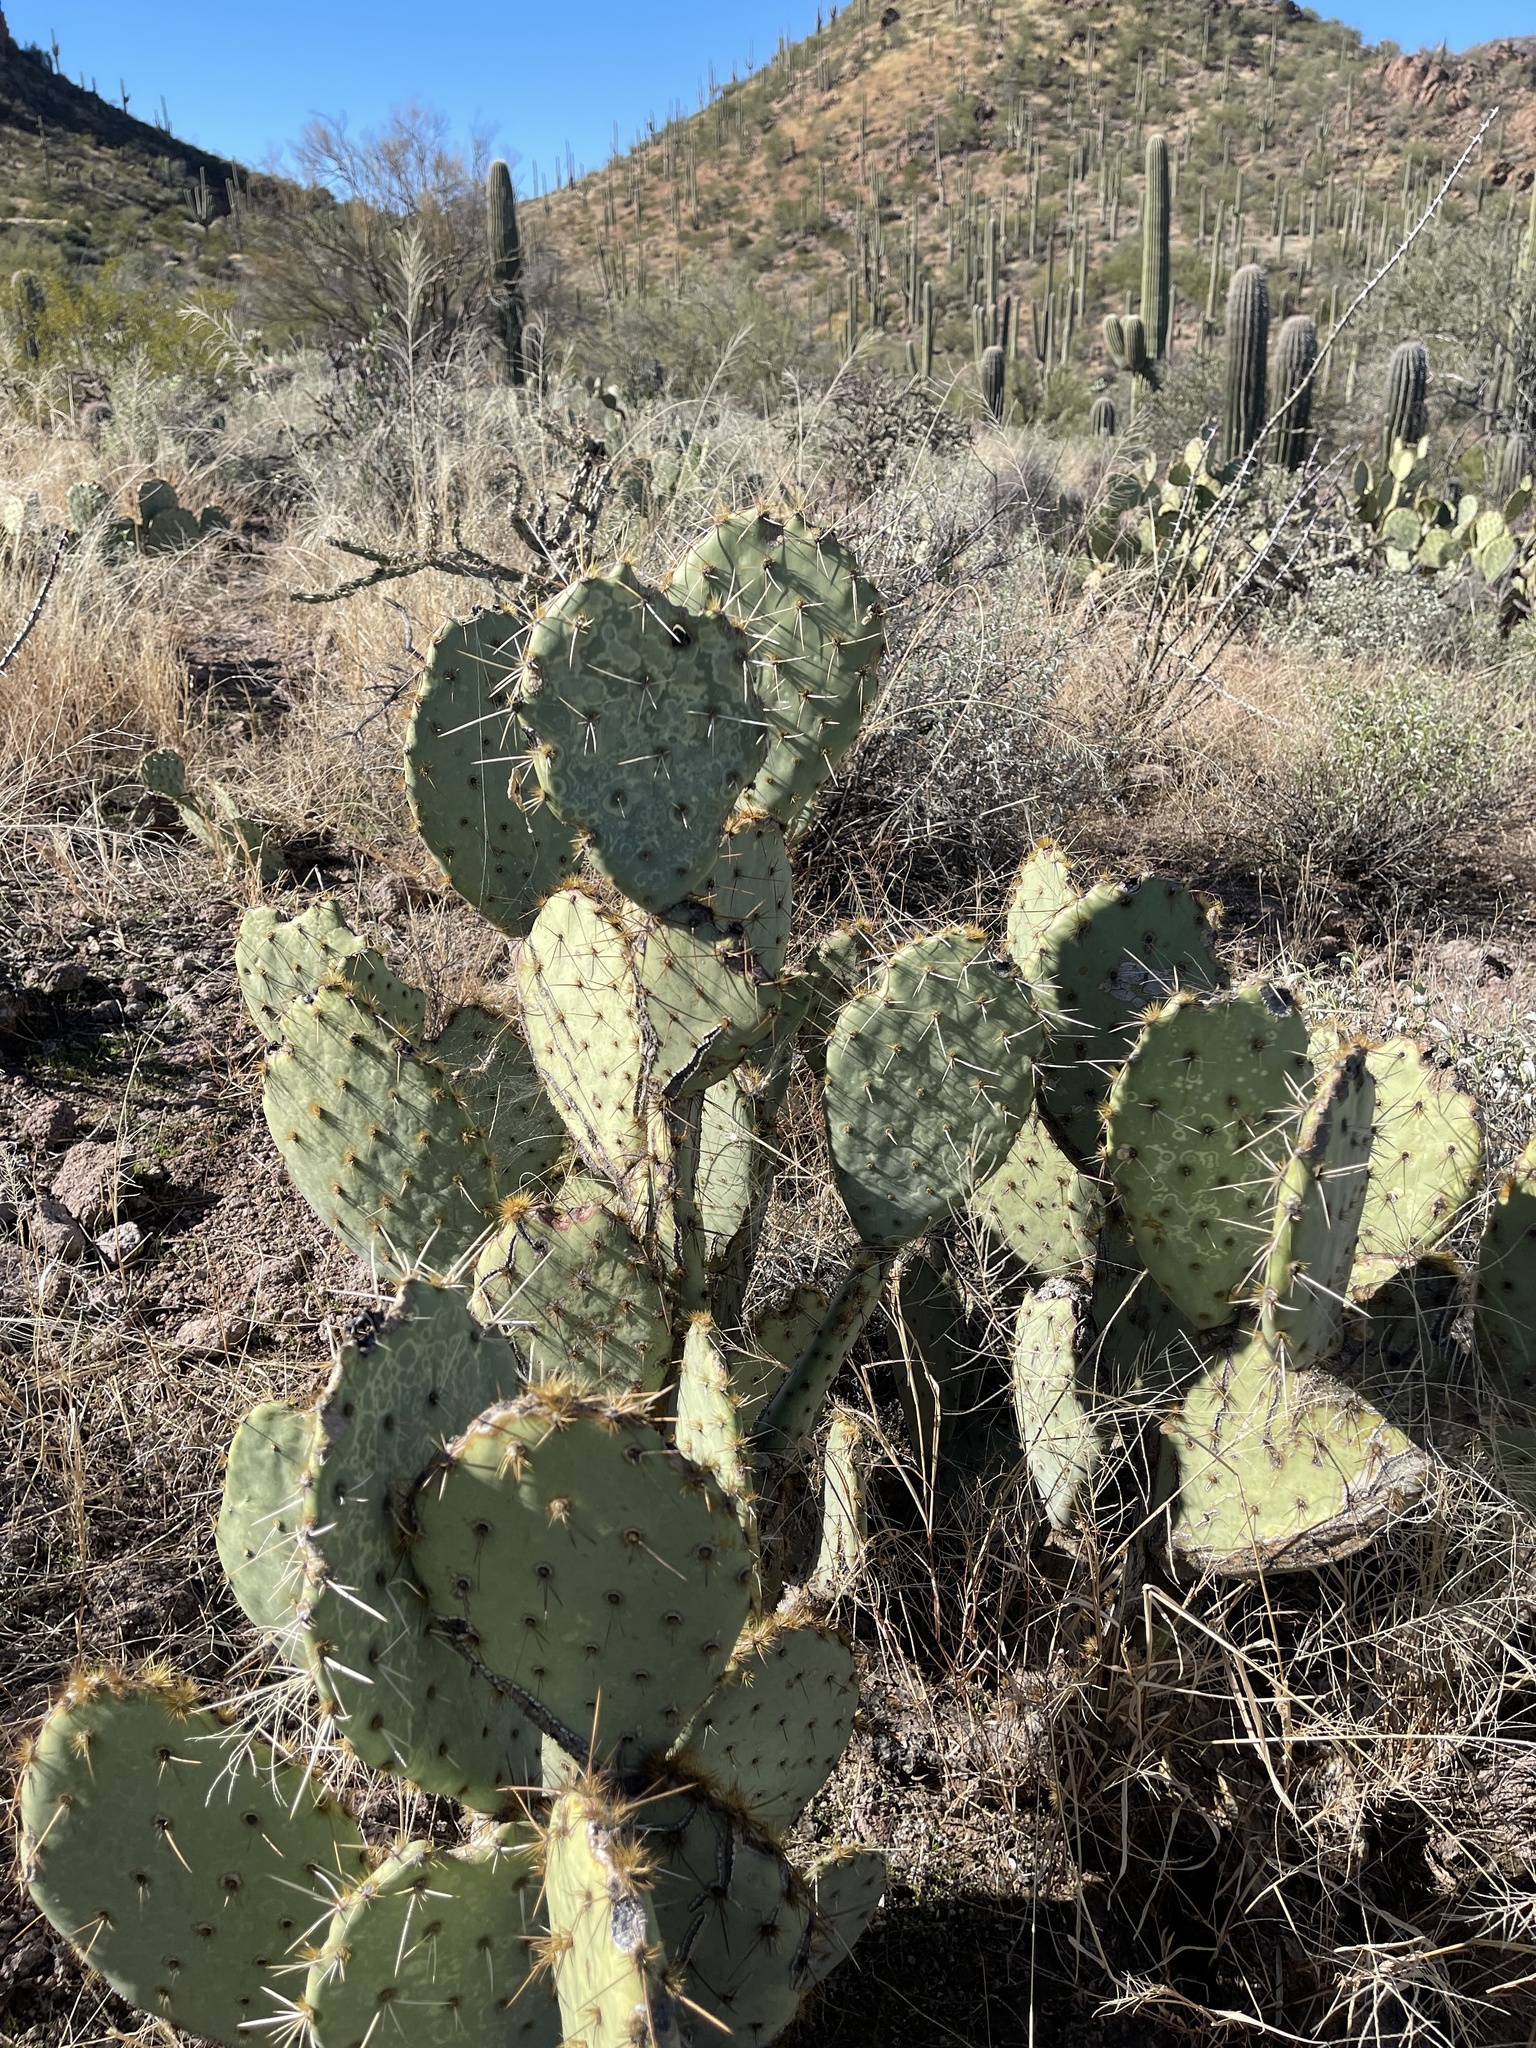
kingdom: Plantae
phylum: Tracheophyta
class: Magnoliopsida
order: Caryophyllales
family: Cactaceae
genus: Opuntia
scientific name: Opuntia engelmannii
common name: Cactus-apple
